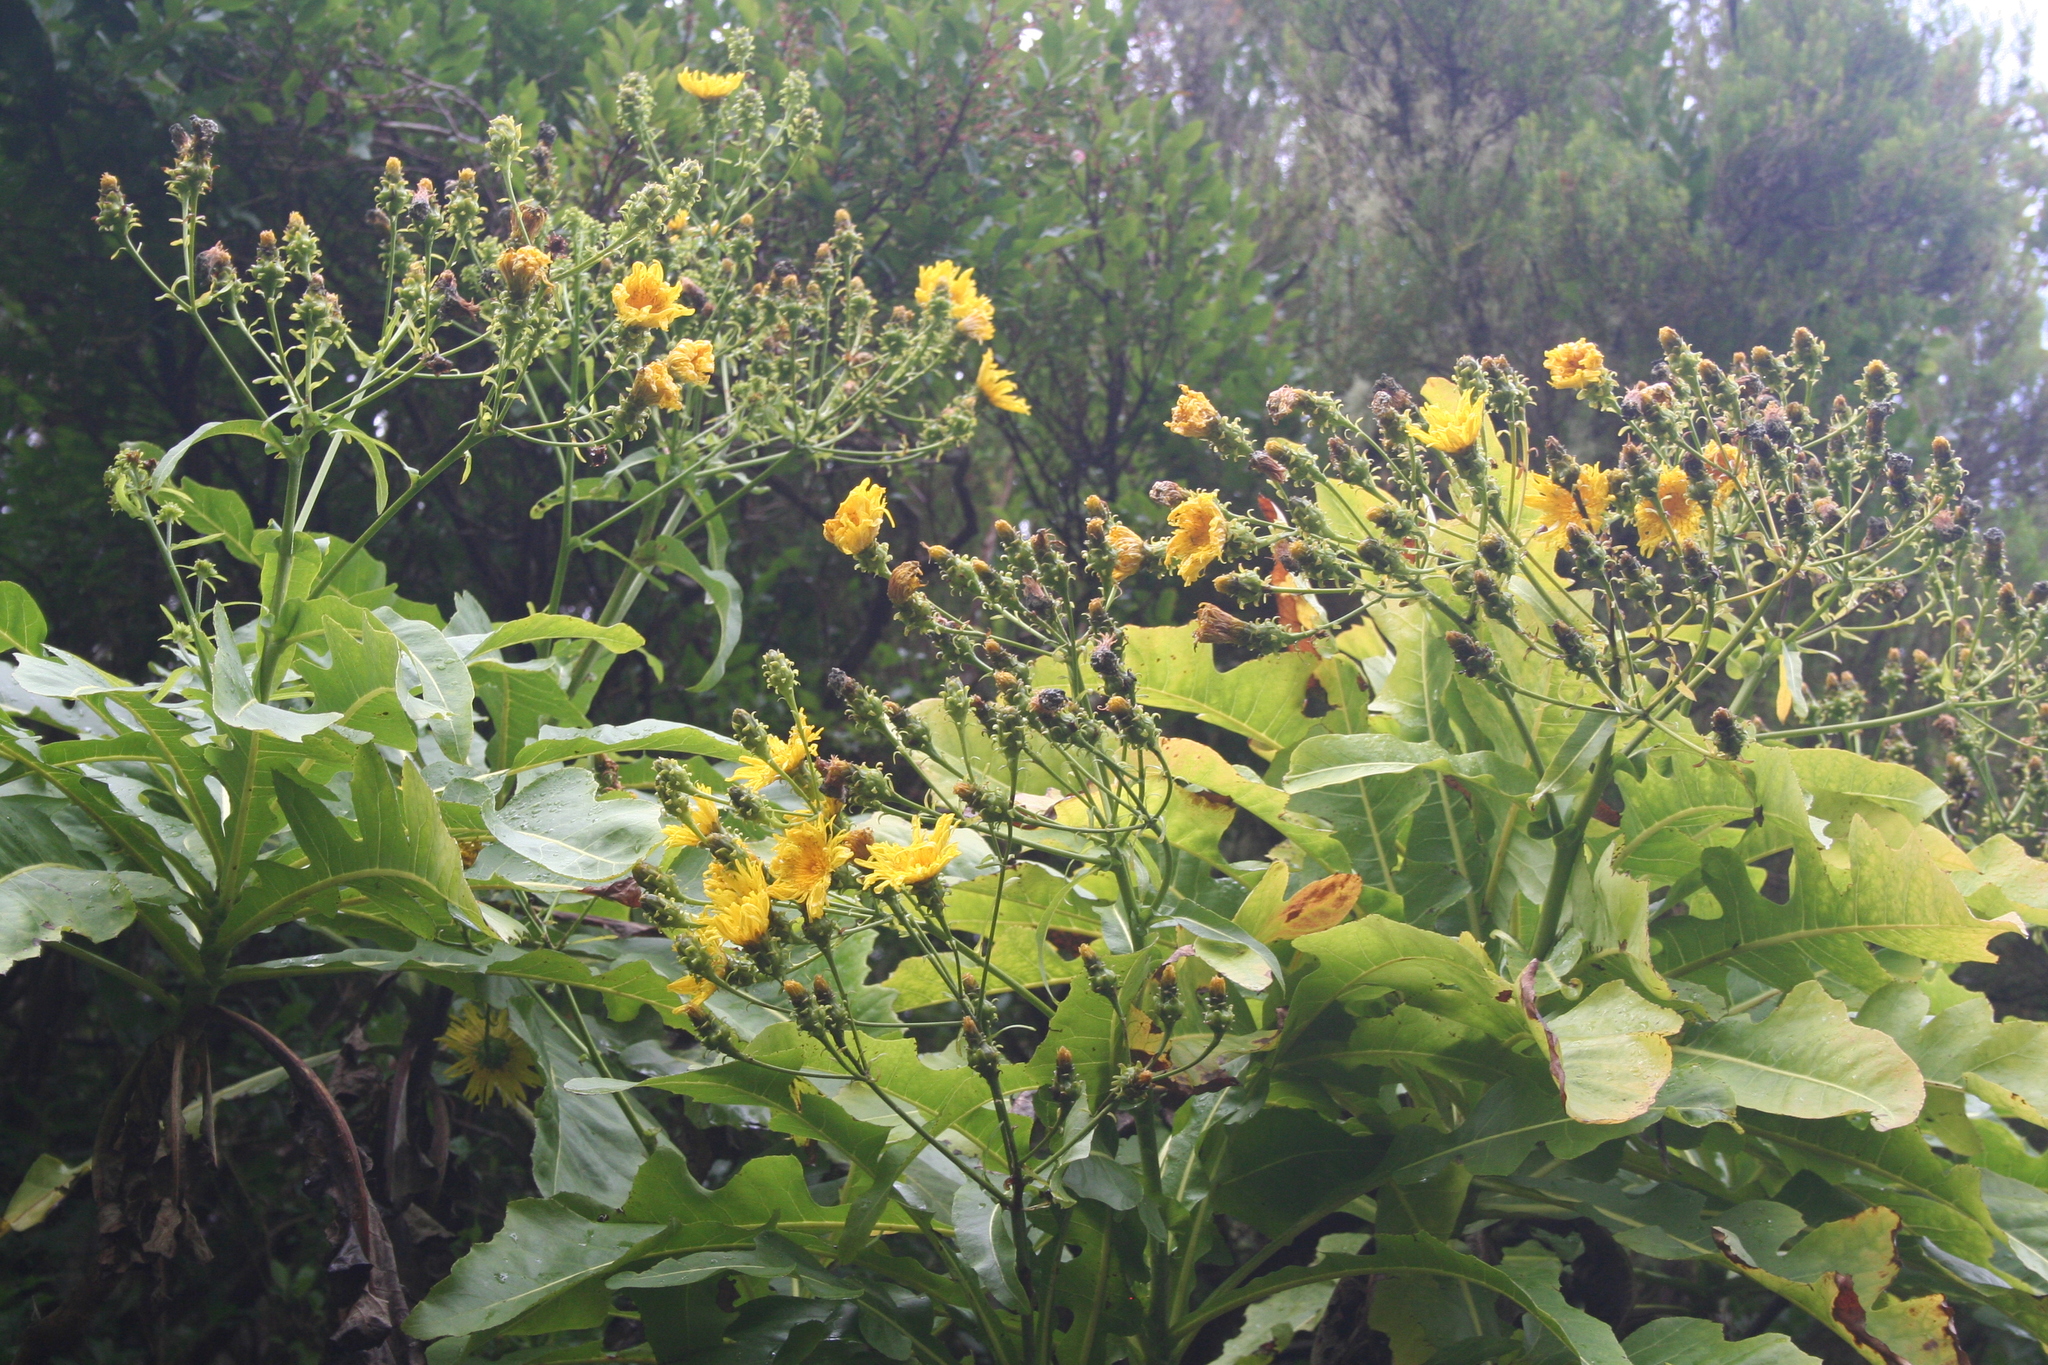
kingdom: Plantae
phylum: Tracheophyta
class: Magnoliopsida
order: Asterales
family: Asteraceae
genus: Sonchus
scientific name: Sonchus fruticosus
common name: Shrubby sow-thistle
